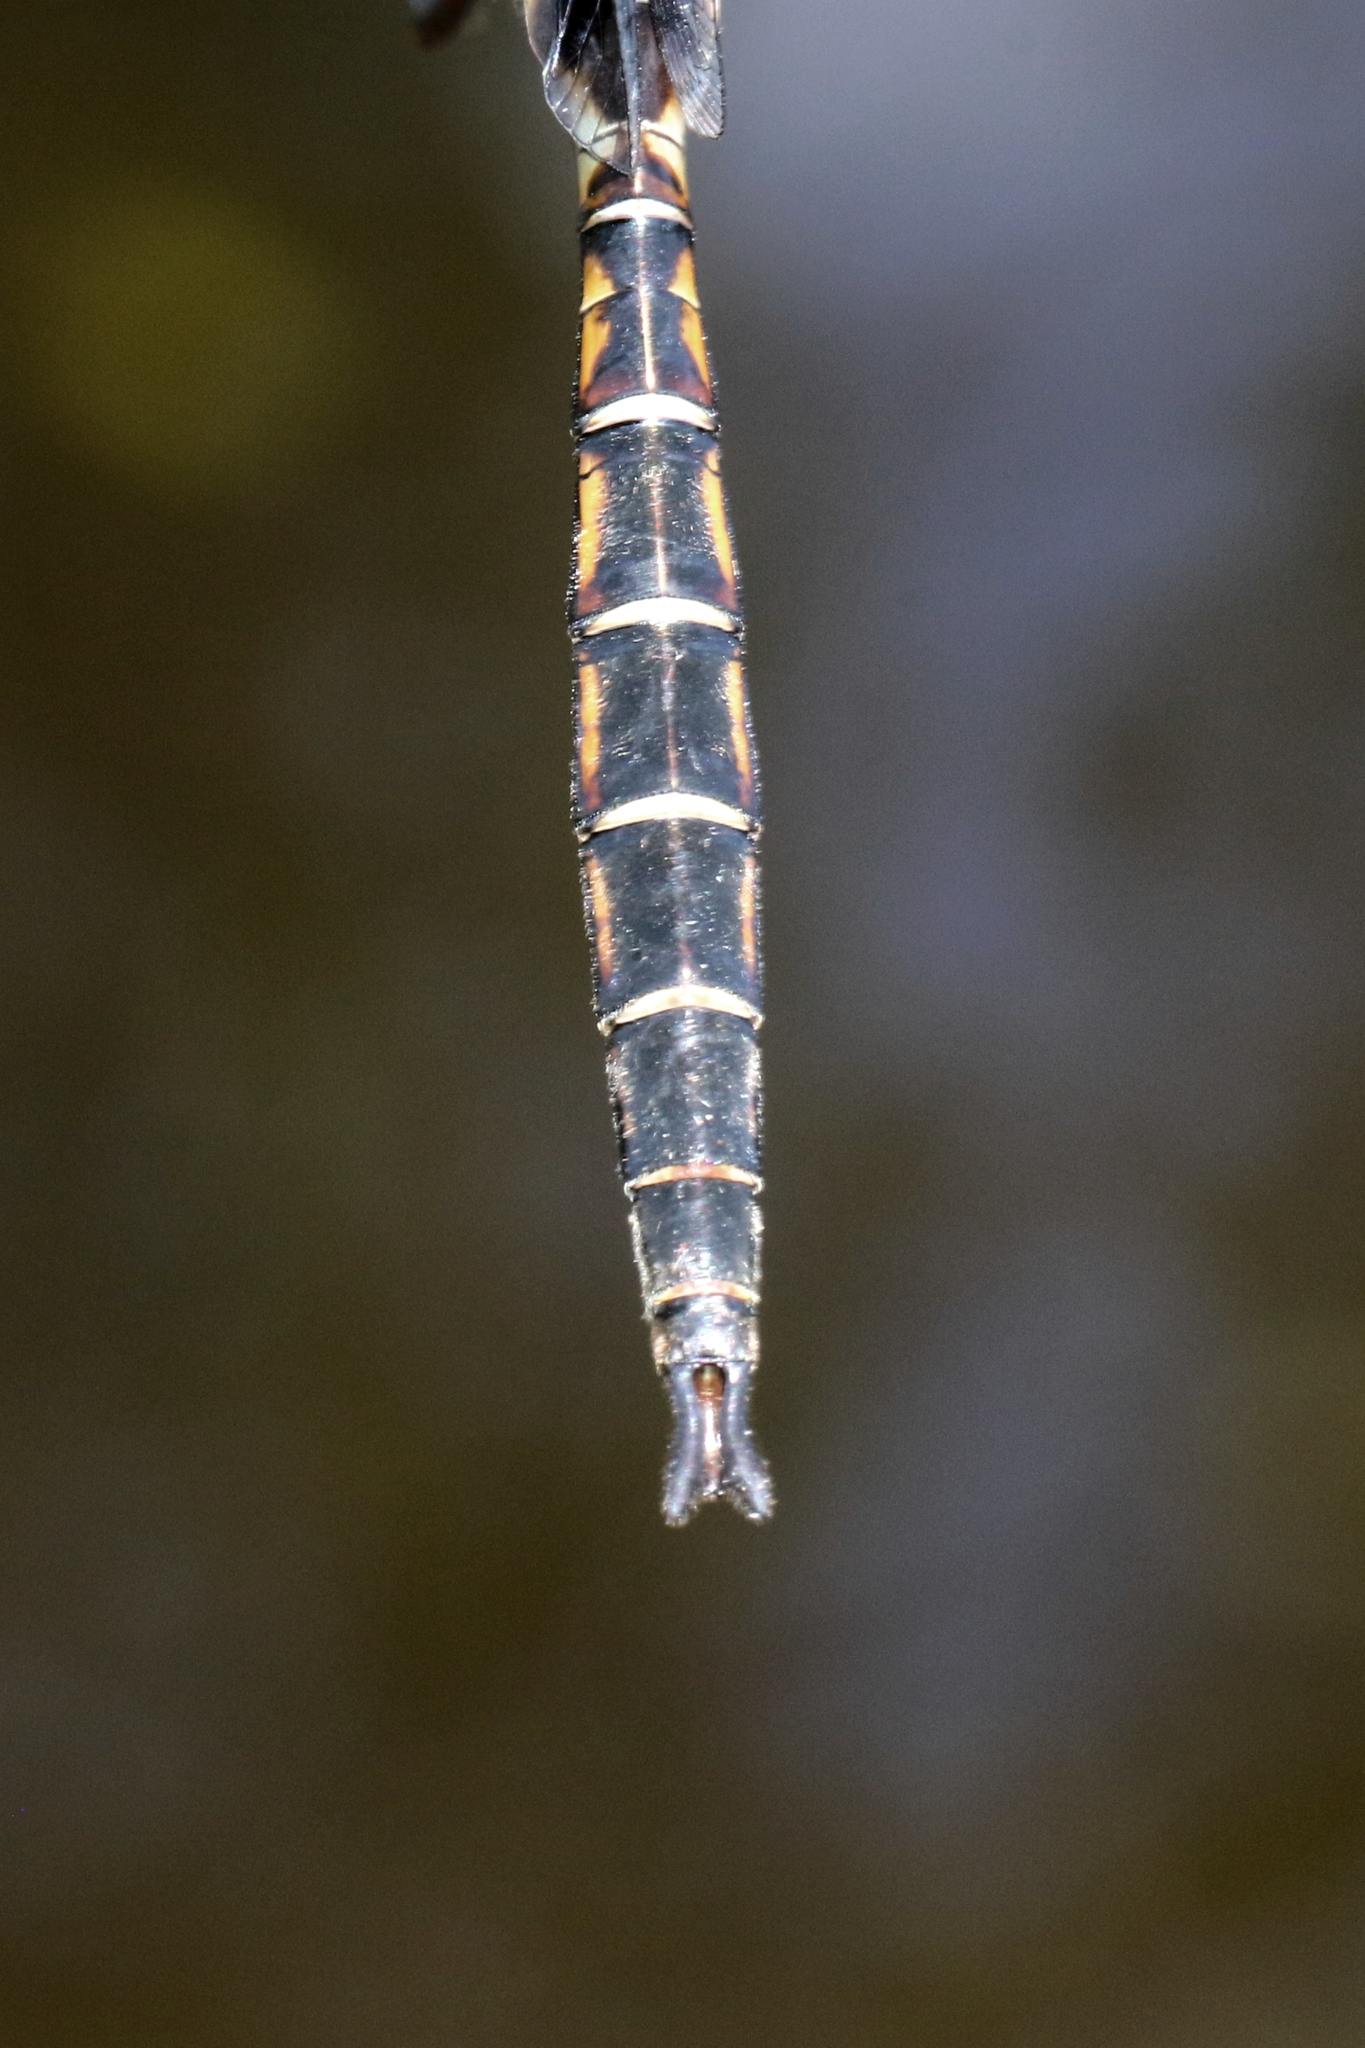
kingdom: Animalia
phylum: Arthropoda
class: Insecta
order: Odonata
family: Corduliidae
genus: Epitheca
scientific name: Epitheca princeps
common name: Prince baskettail
